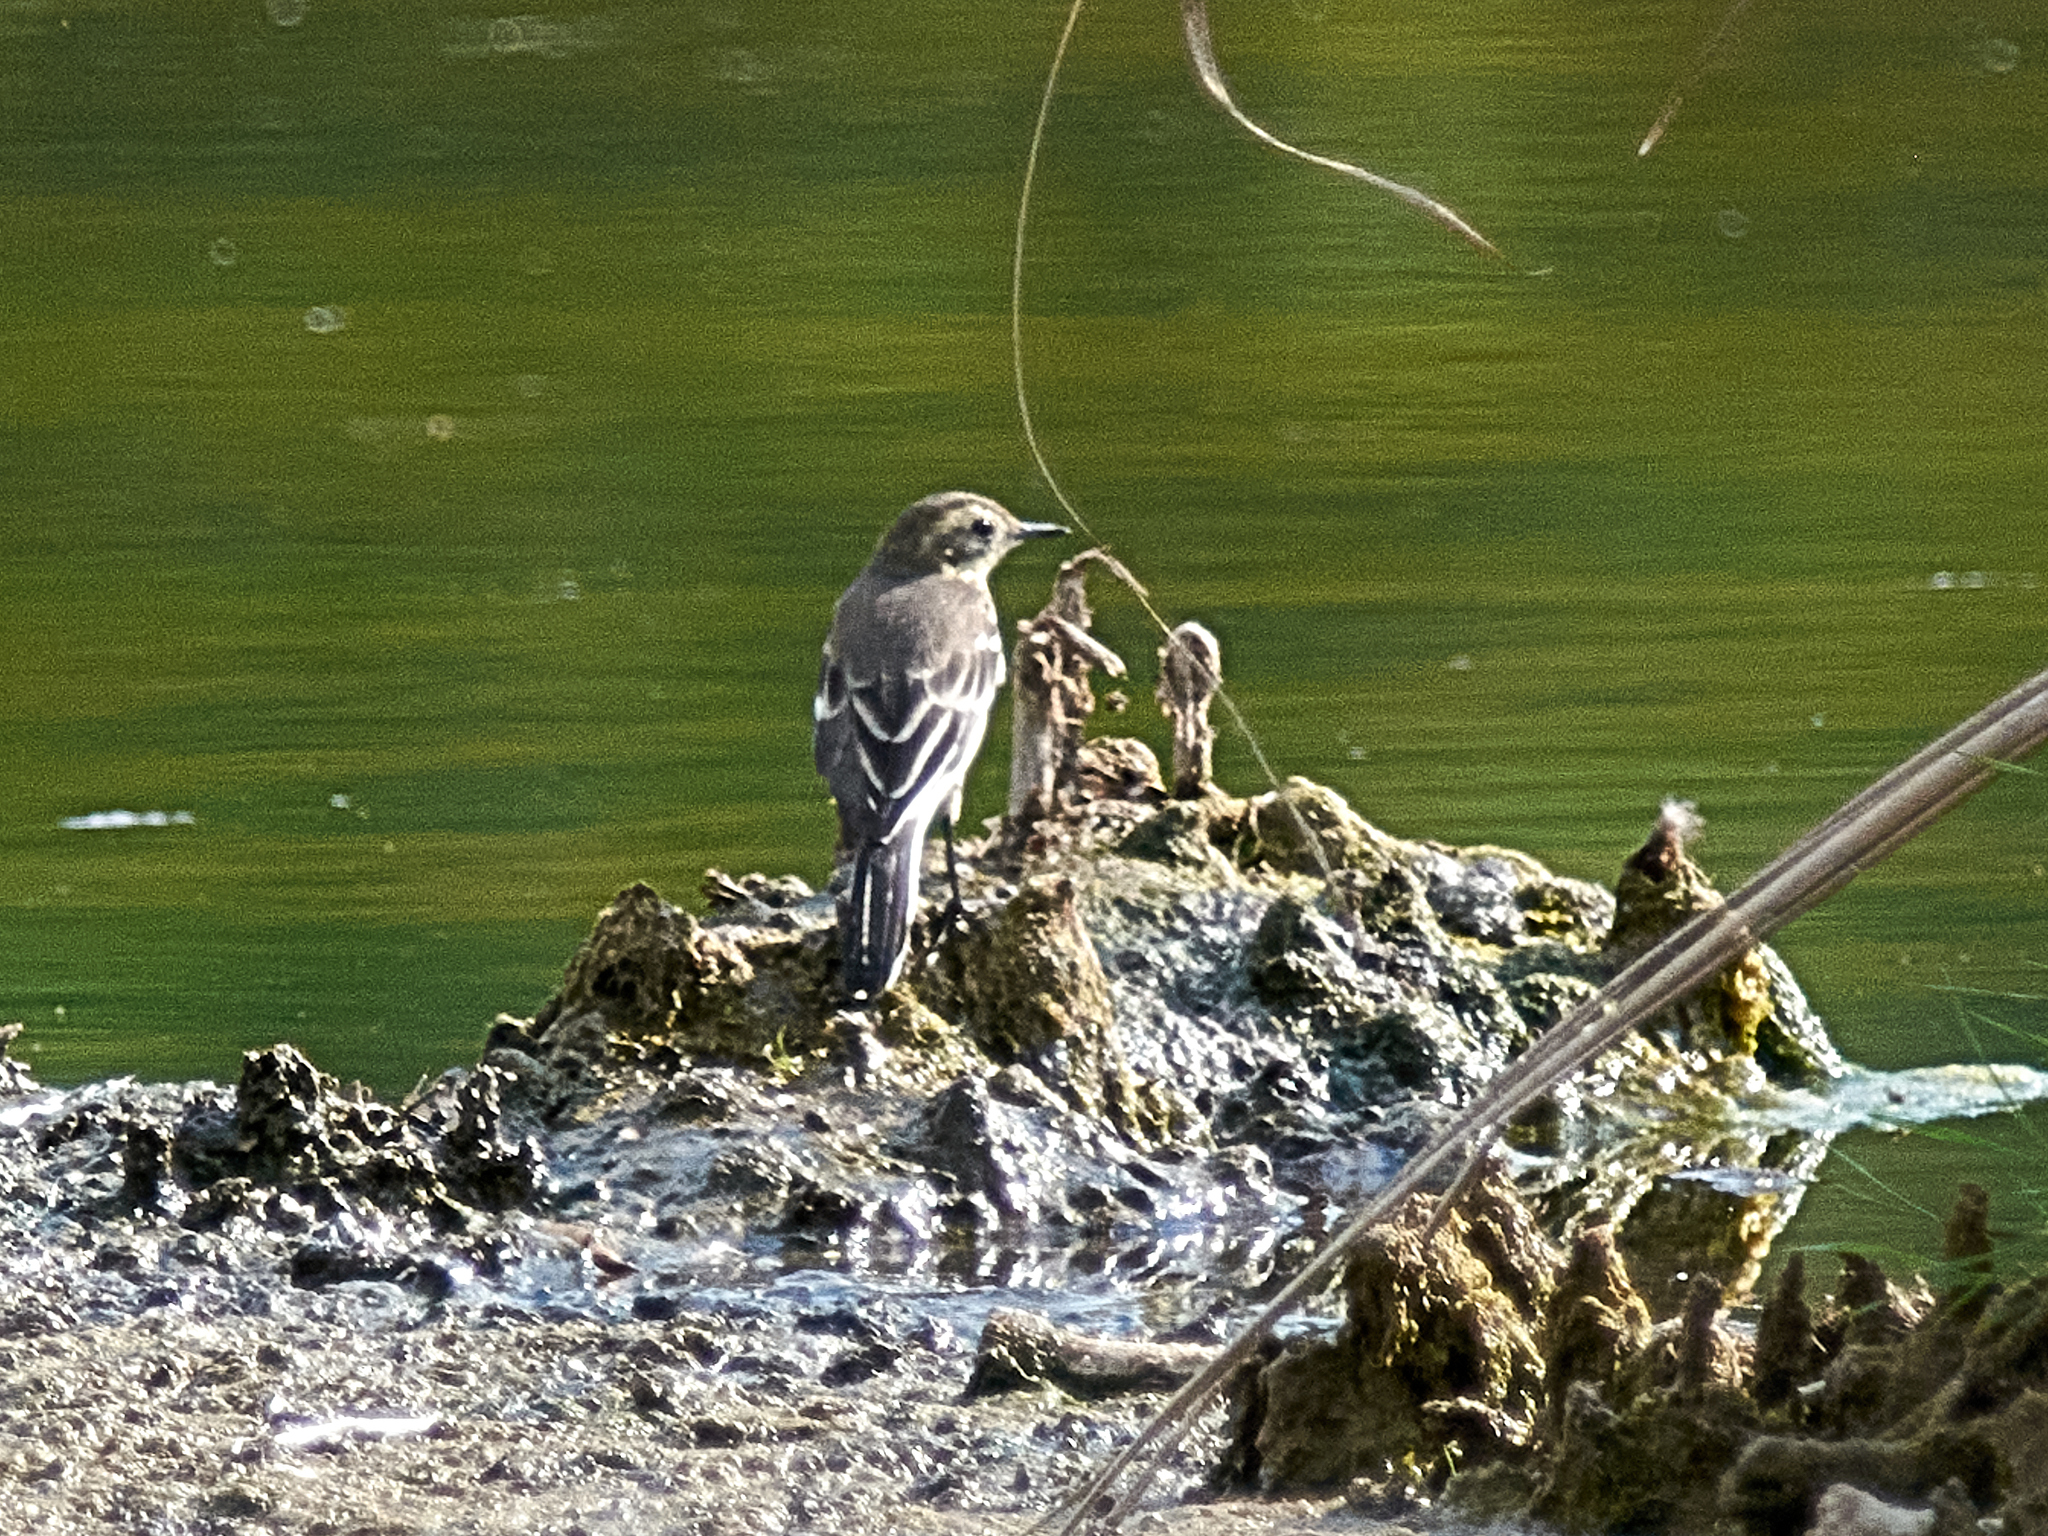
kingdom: Animalia
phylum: Chordata
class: Aves
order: Passeriformes
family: Motacillidae
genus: Motacilla
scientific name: Motacilla citreola
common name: Citrine wagtail
